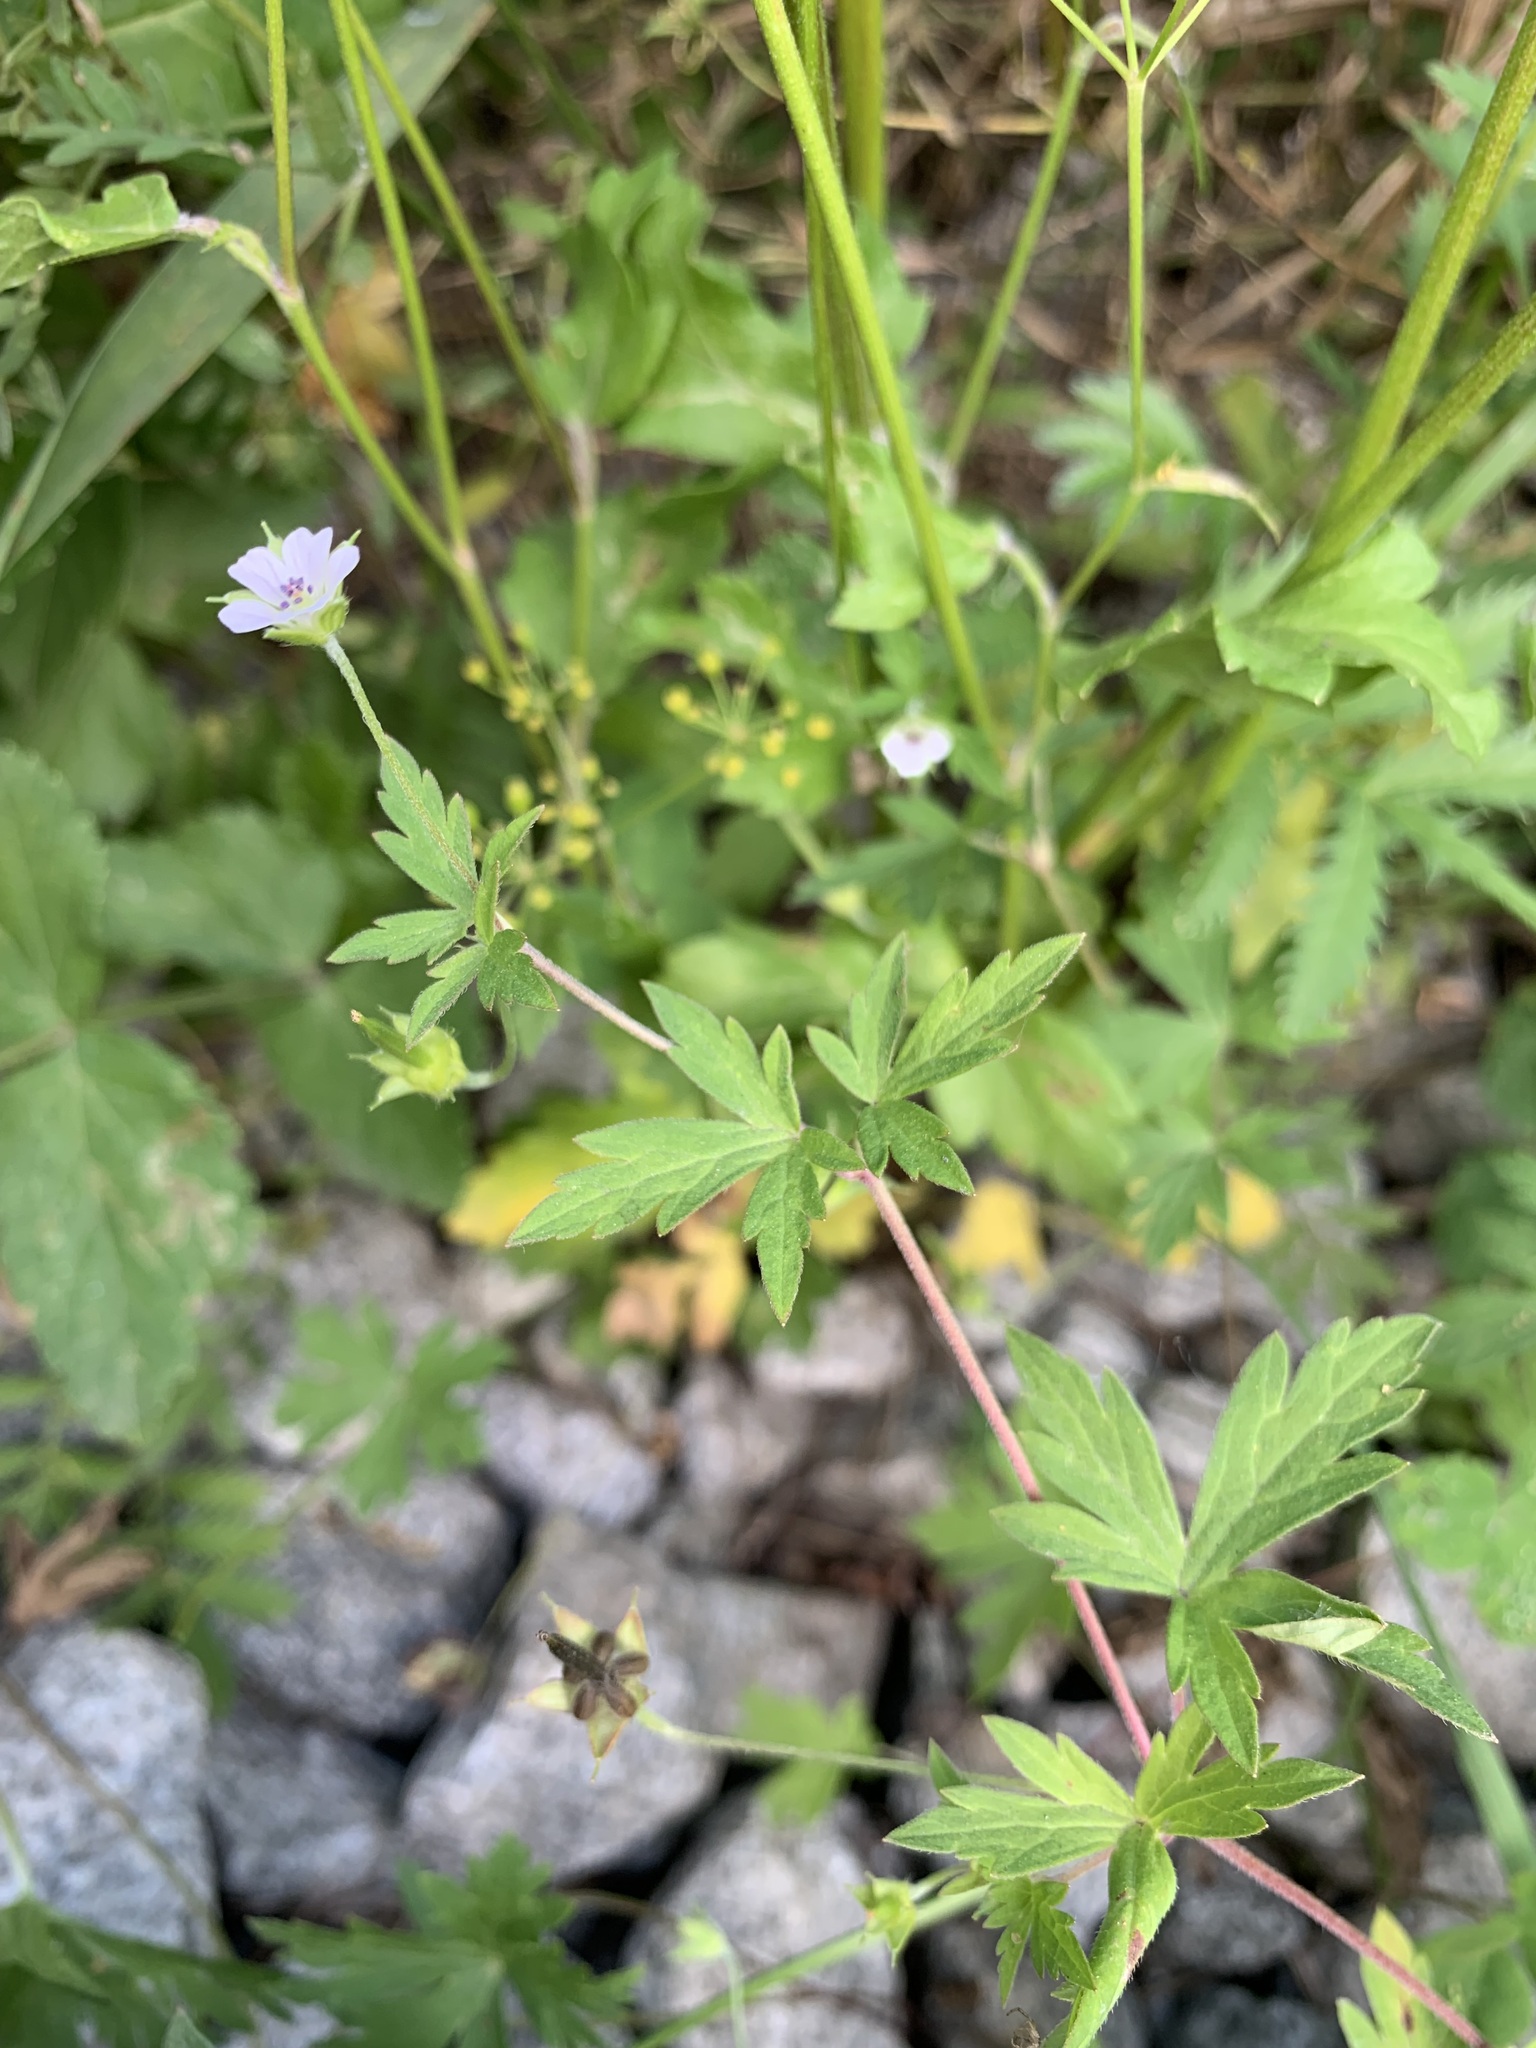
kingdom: Plantae
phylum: Tracheophyta
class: Magnoliopsida
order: Geraniales
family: Geraniaceae
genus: Geranium
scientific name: Geranium sibiricum
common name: Siberian crane's-bill
